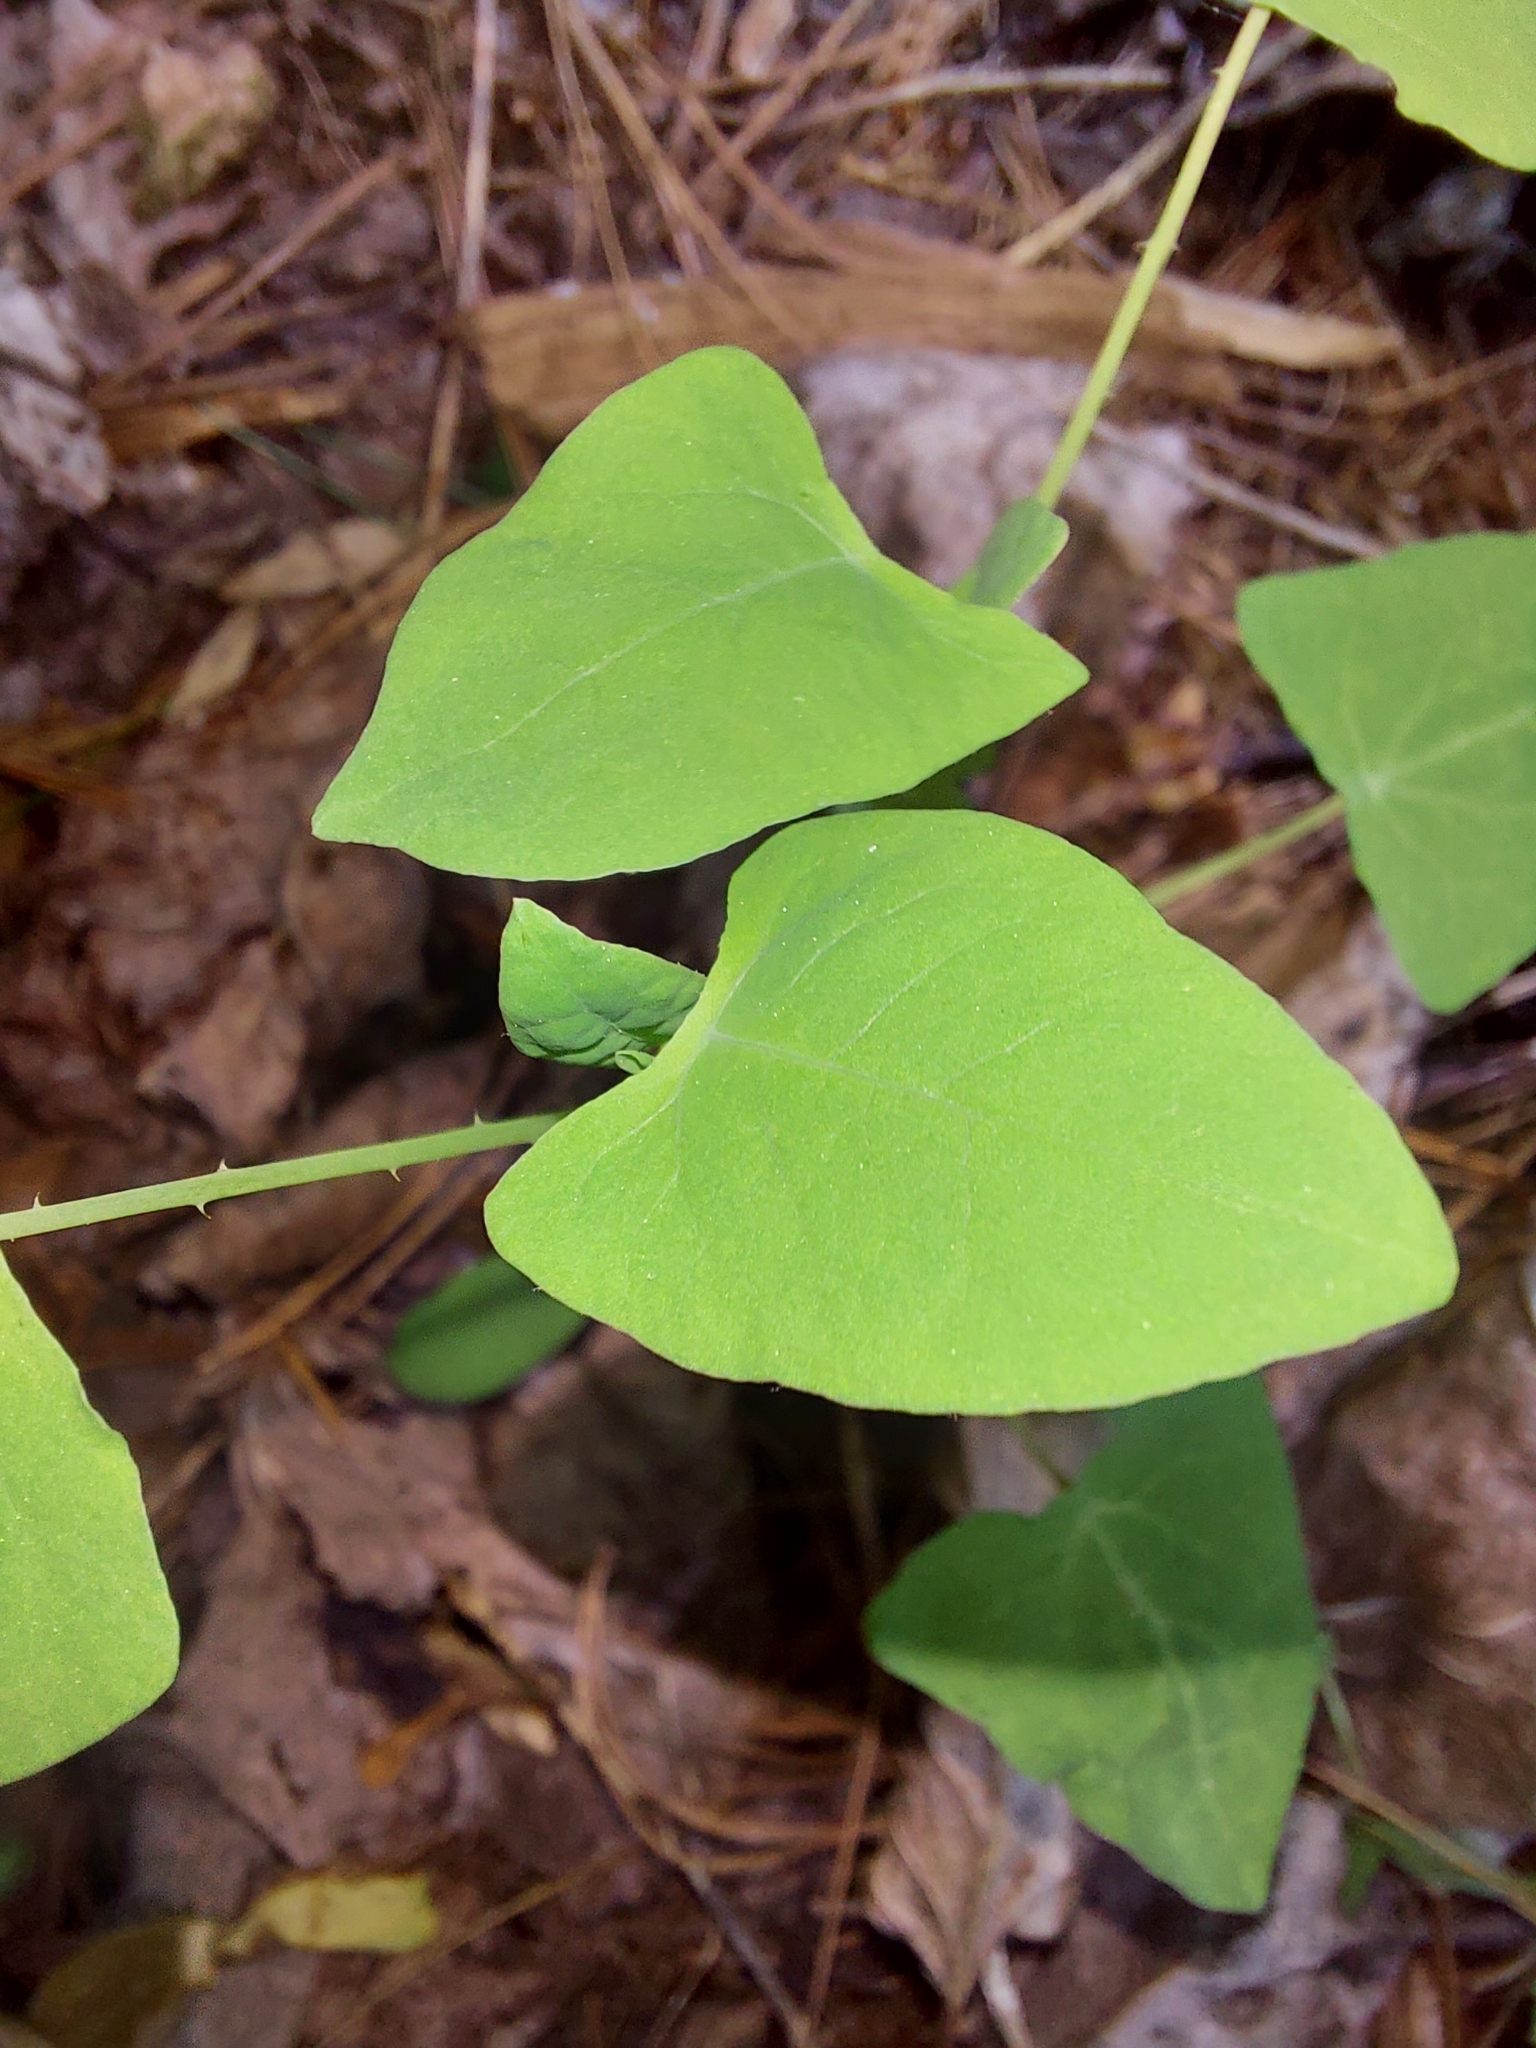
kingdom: Plantae
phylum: Tracheophyta
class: Magnoliopsida
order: Caryophyllales
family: Polygonaceae
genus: Persicaria
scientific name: Persicaria perfoliata
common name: Asiatic tearthumb
